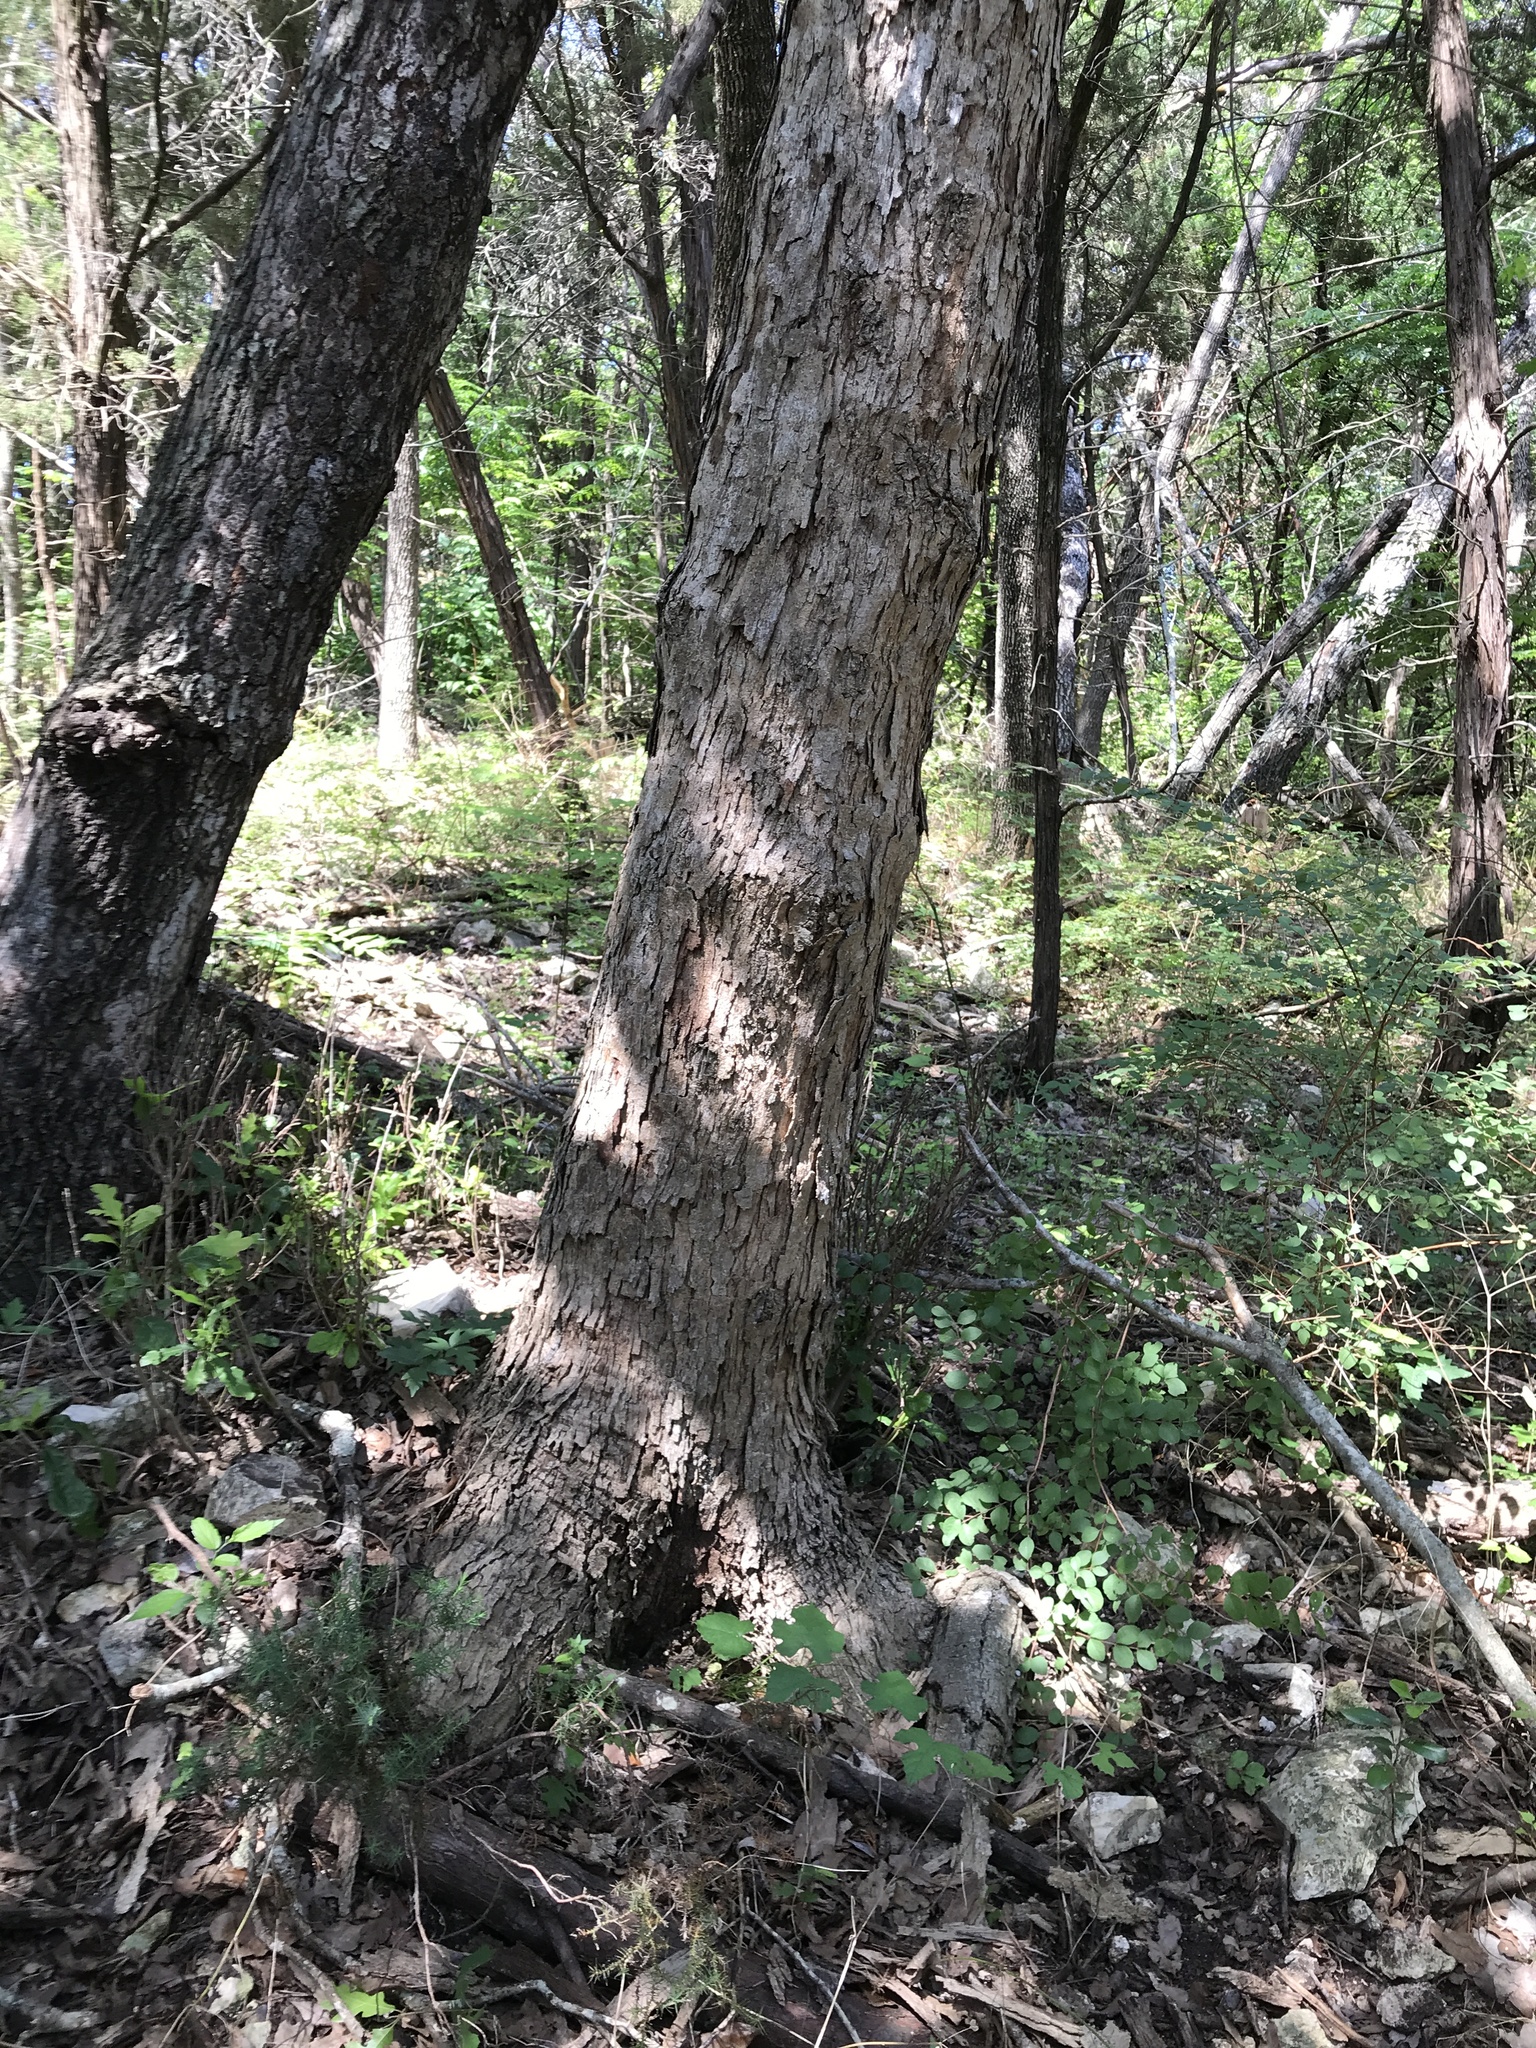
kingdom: Plantae
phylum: Tracheophyta
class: Magnoliopsida
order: Fagales
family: Fagaceae
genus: Quercus
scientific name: Quercus sinuata
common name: Durand oak
